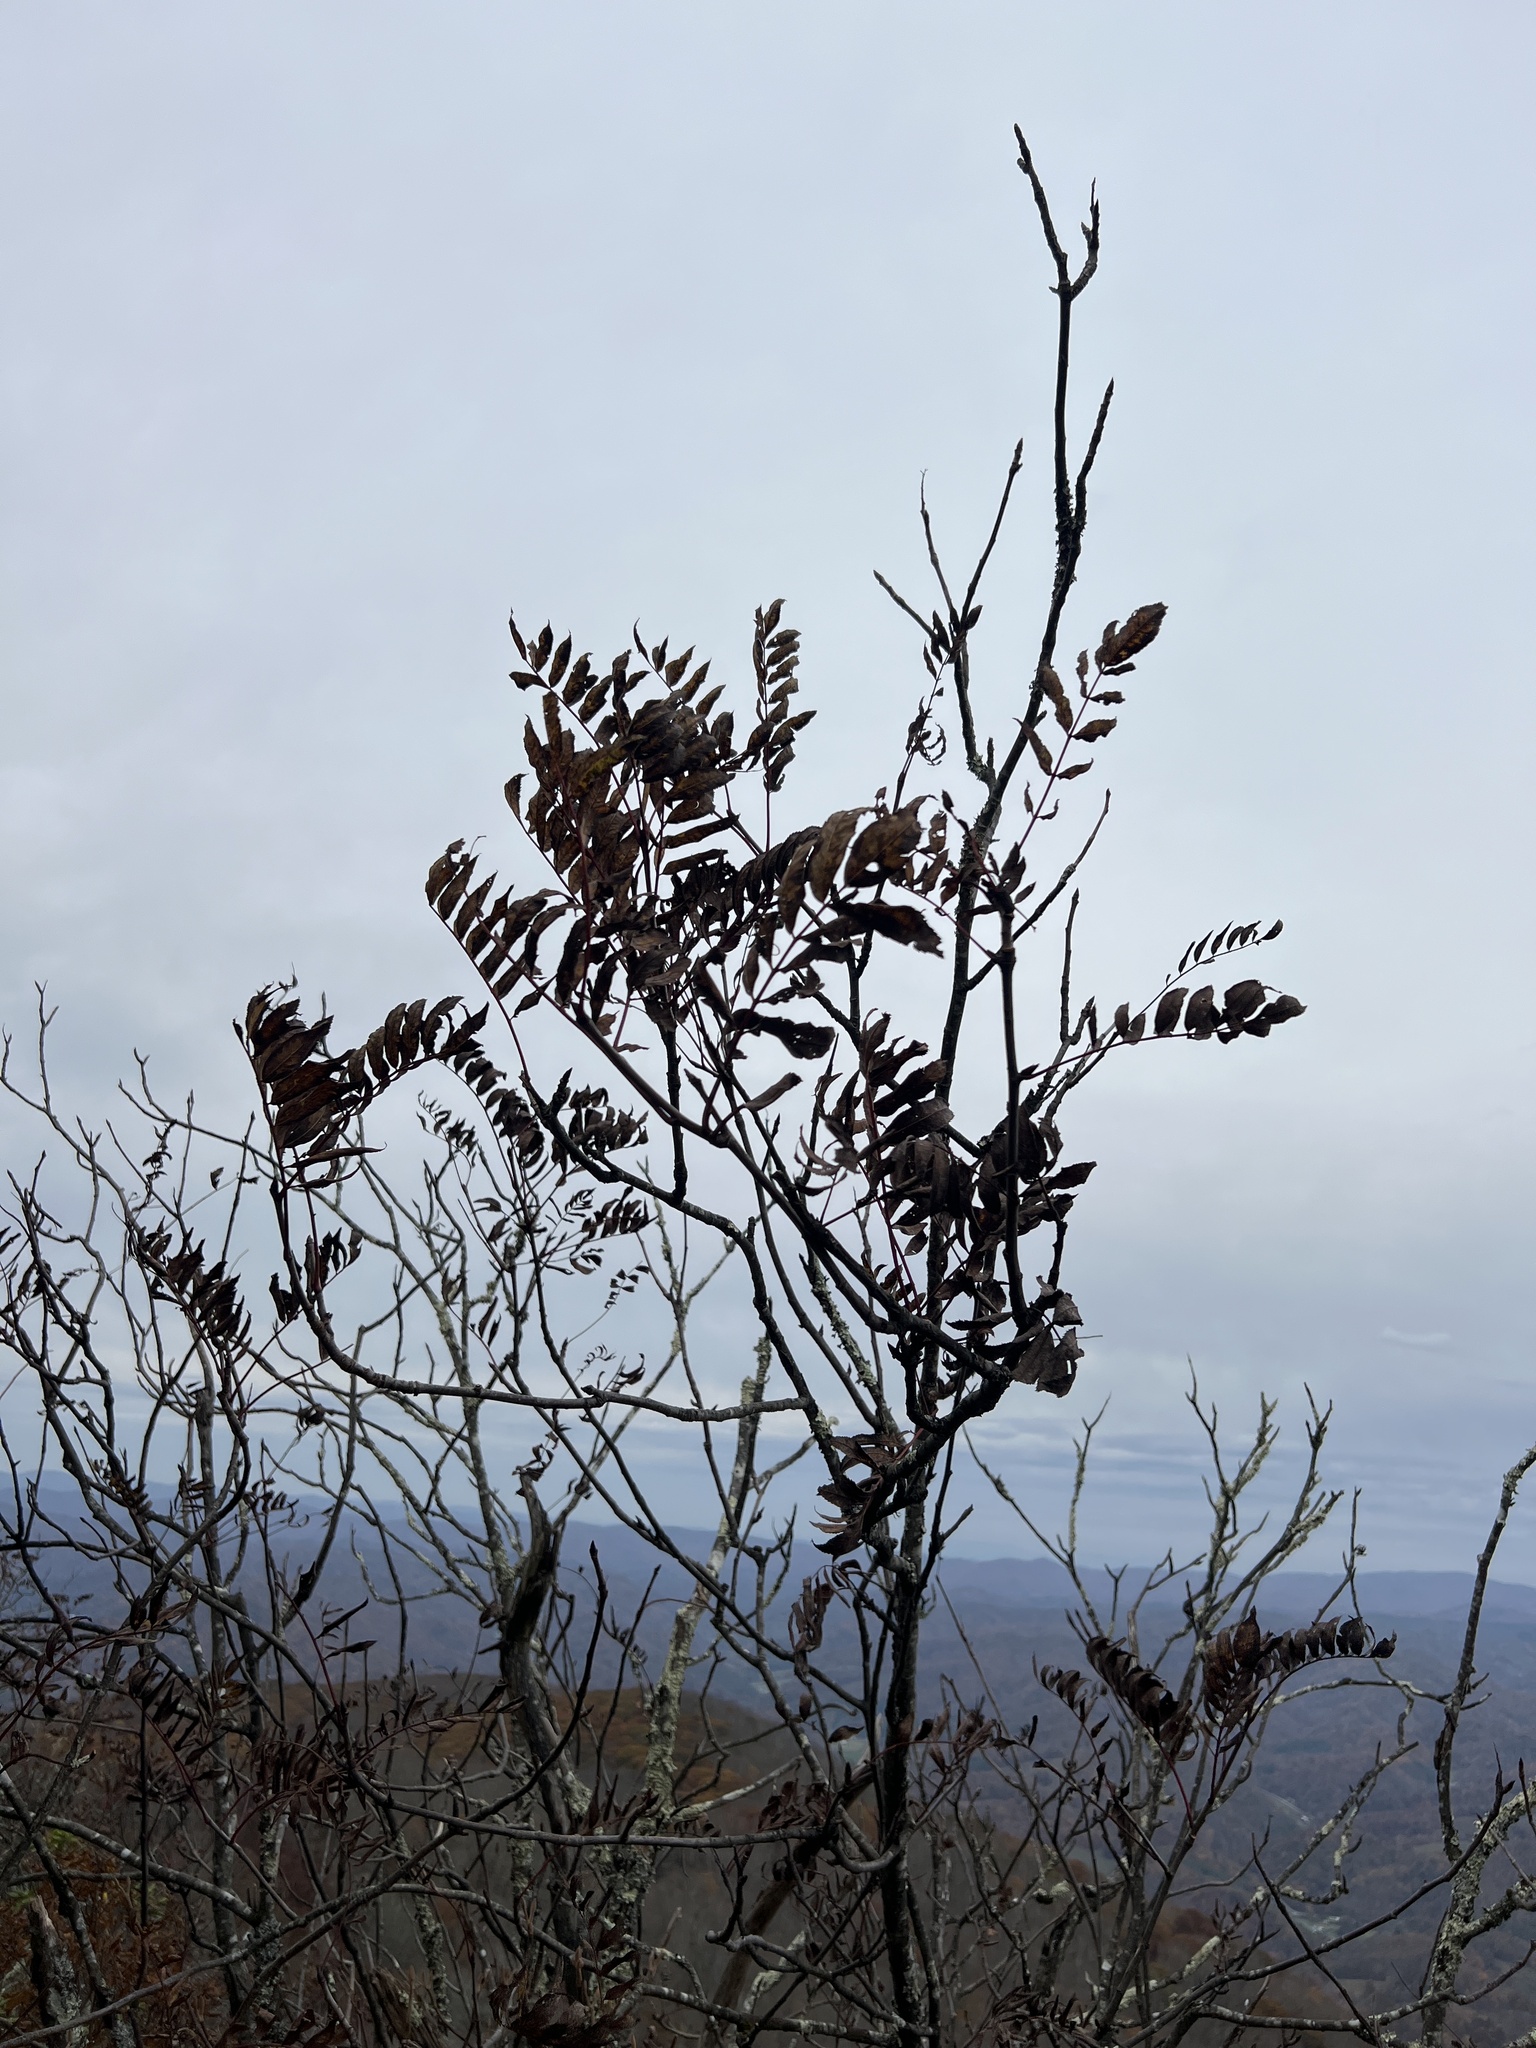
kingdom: Plantae
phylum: Tracheophyta
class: Magnoliopsida
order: Rosales
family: Rosaceae
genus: Sorbus
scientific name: Sorbus americana
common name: American mountain-ash
